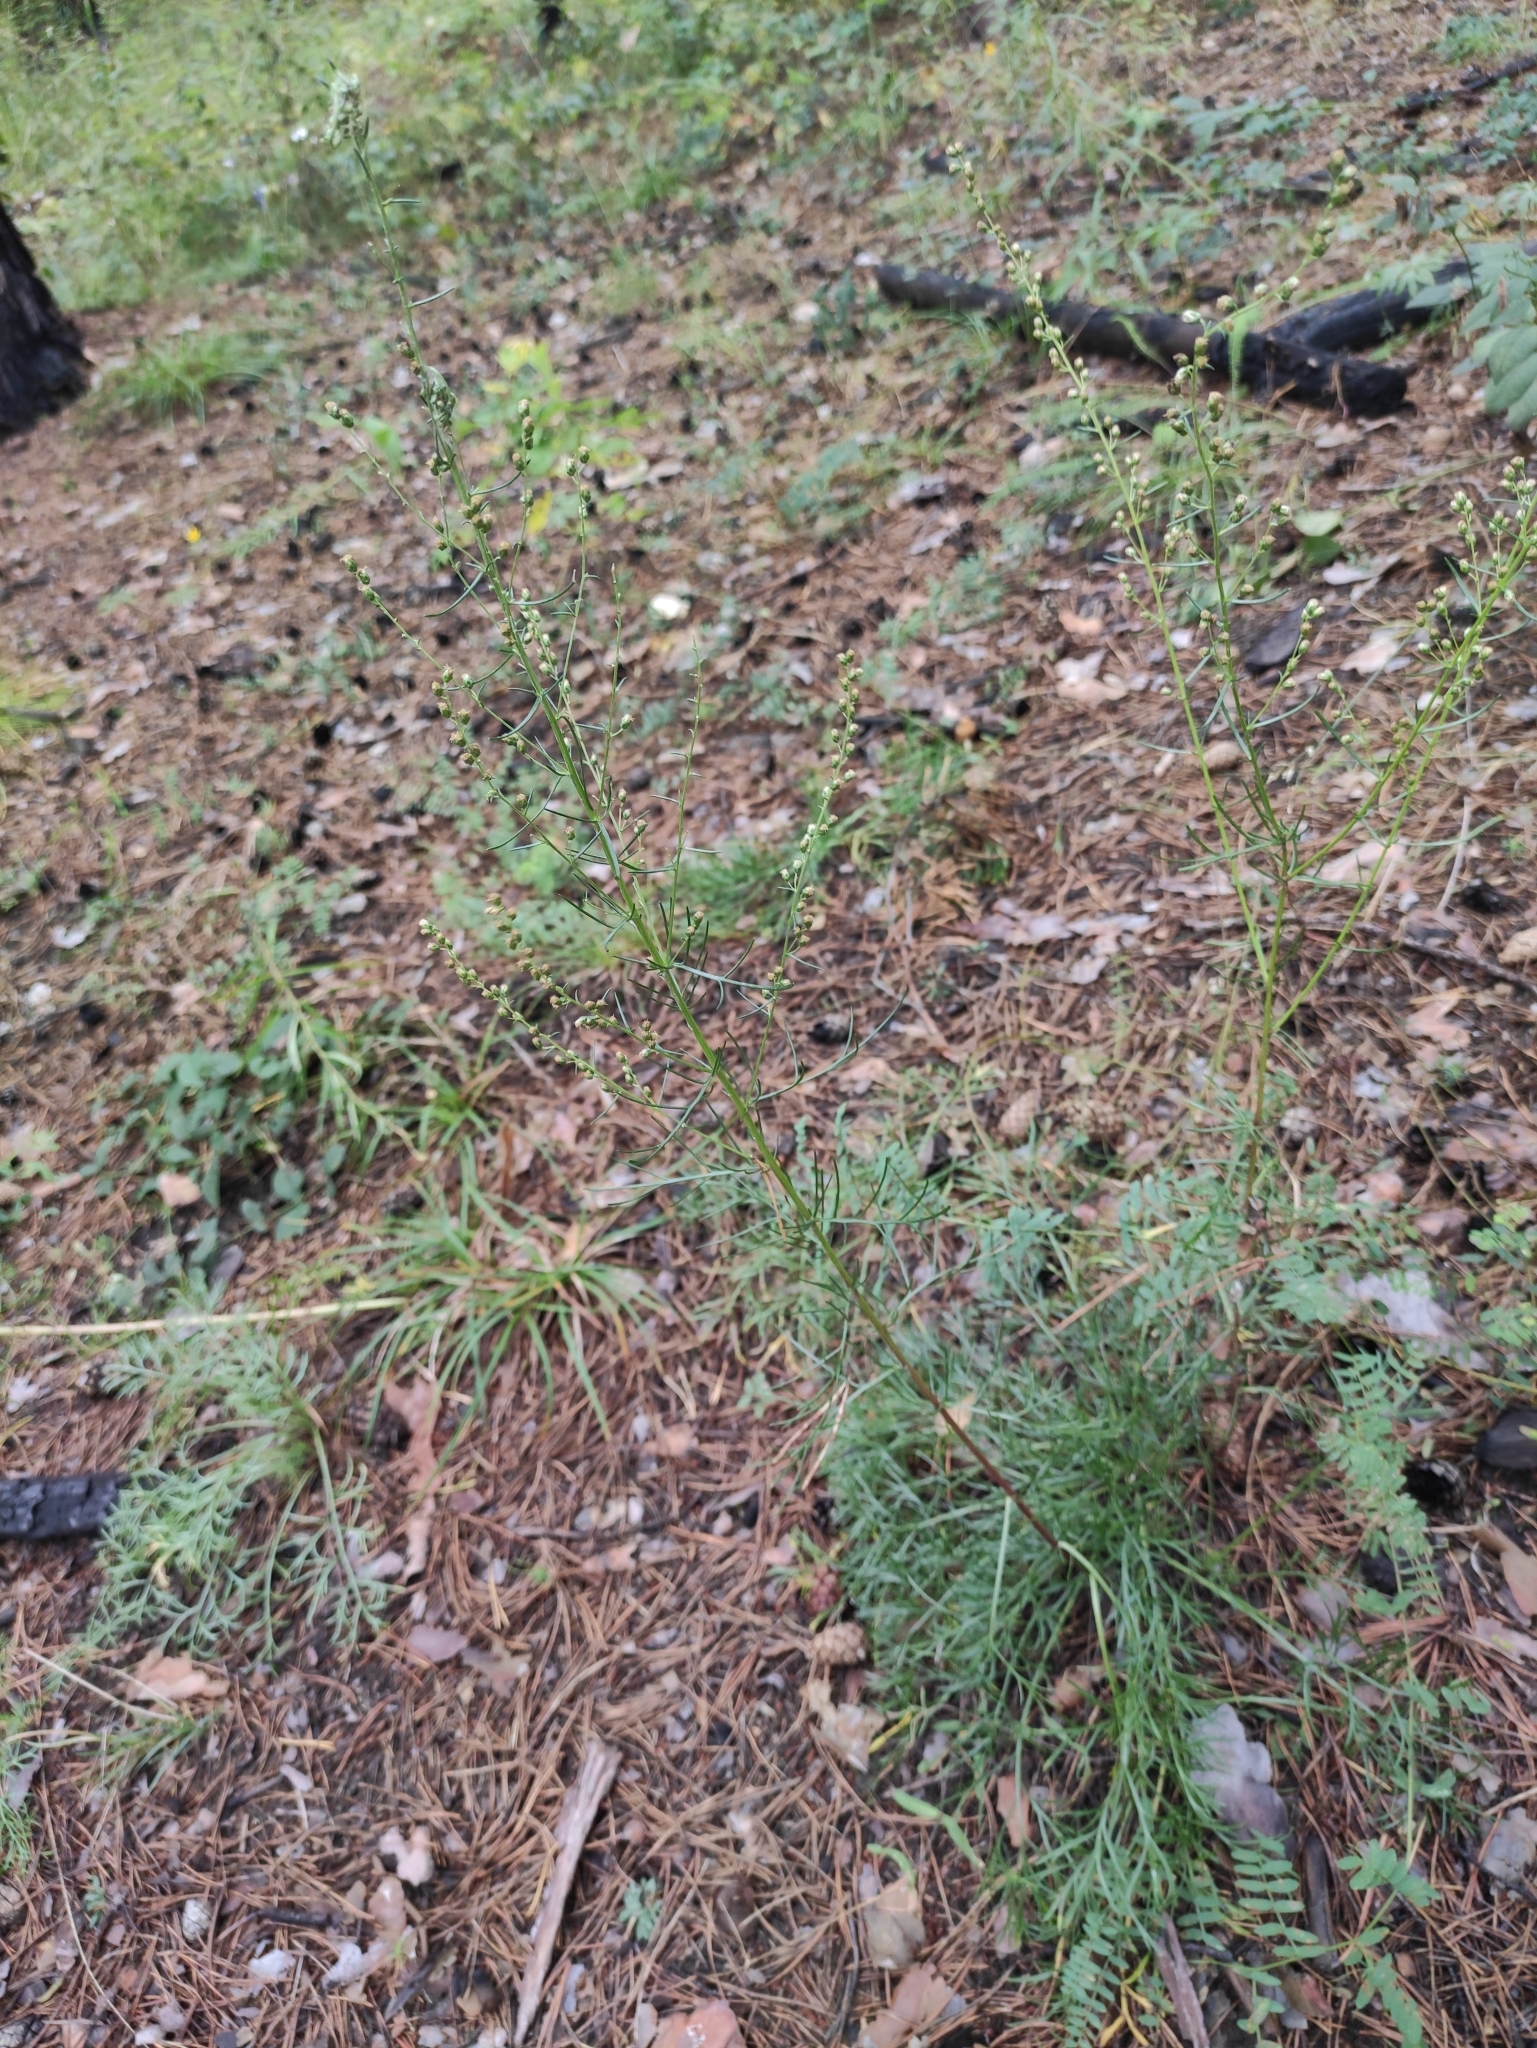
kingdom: Plantae
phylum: Tracheophyta
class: Magnoliopsida
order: Asterales
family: Asteraceae
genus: Artemisia
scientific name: Artemisia pubescens
